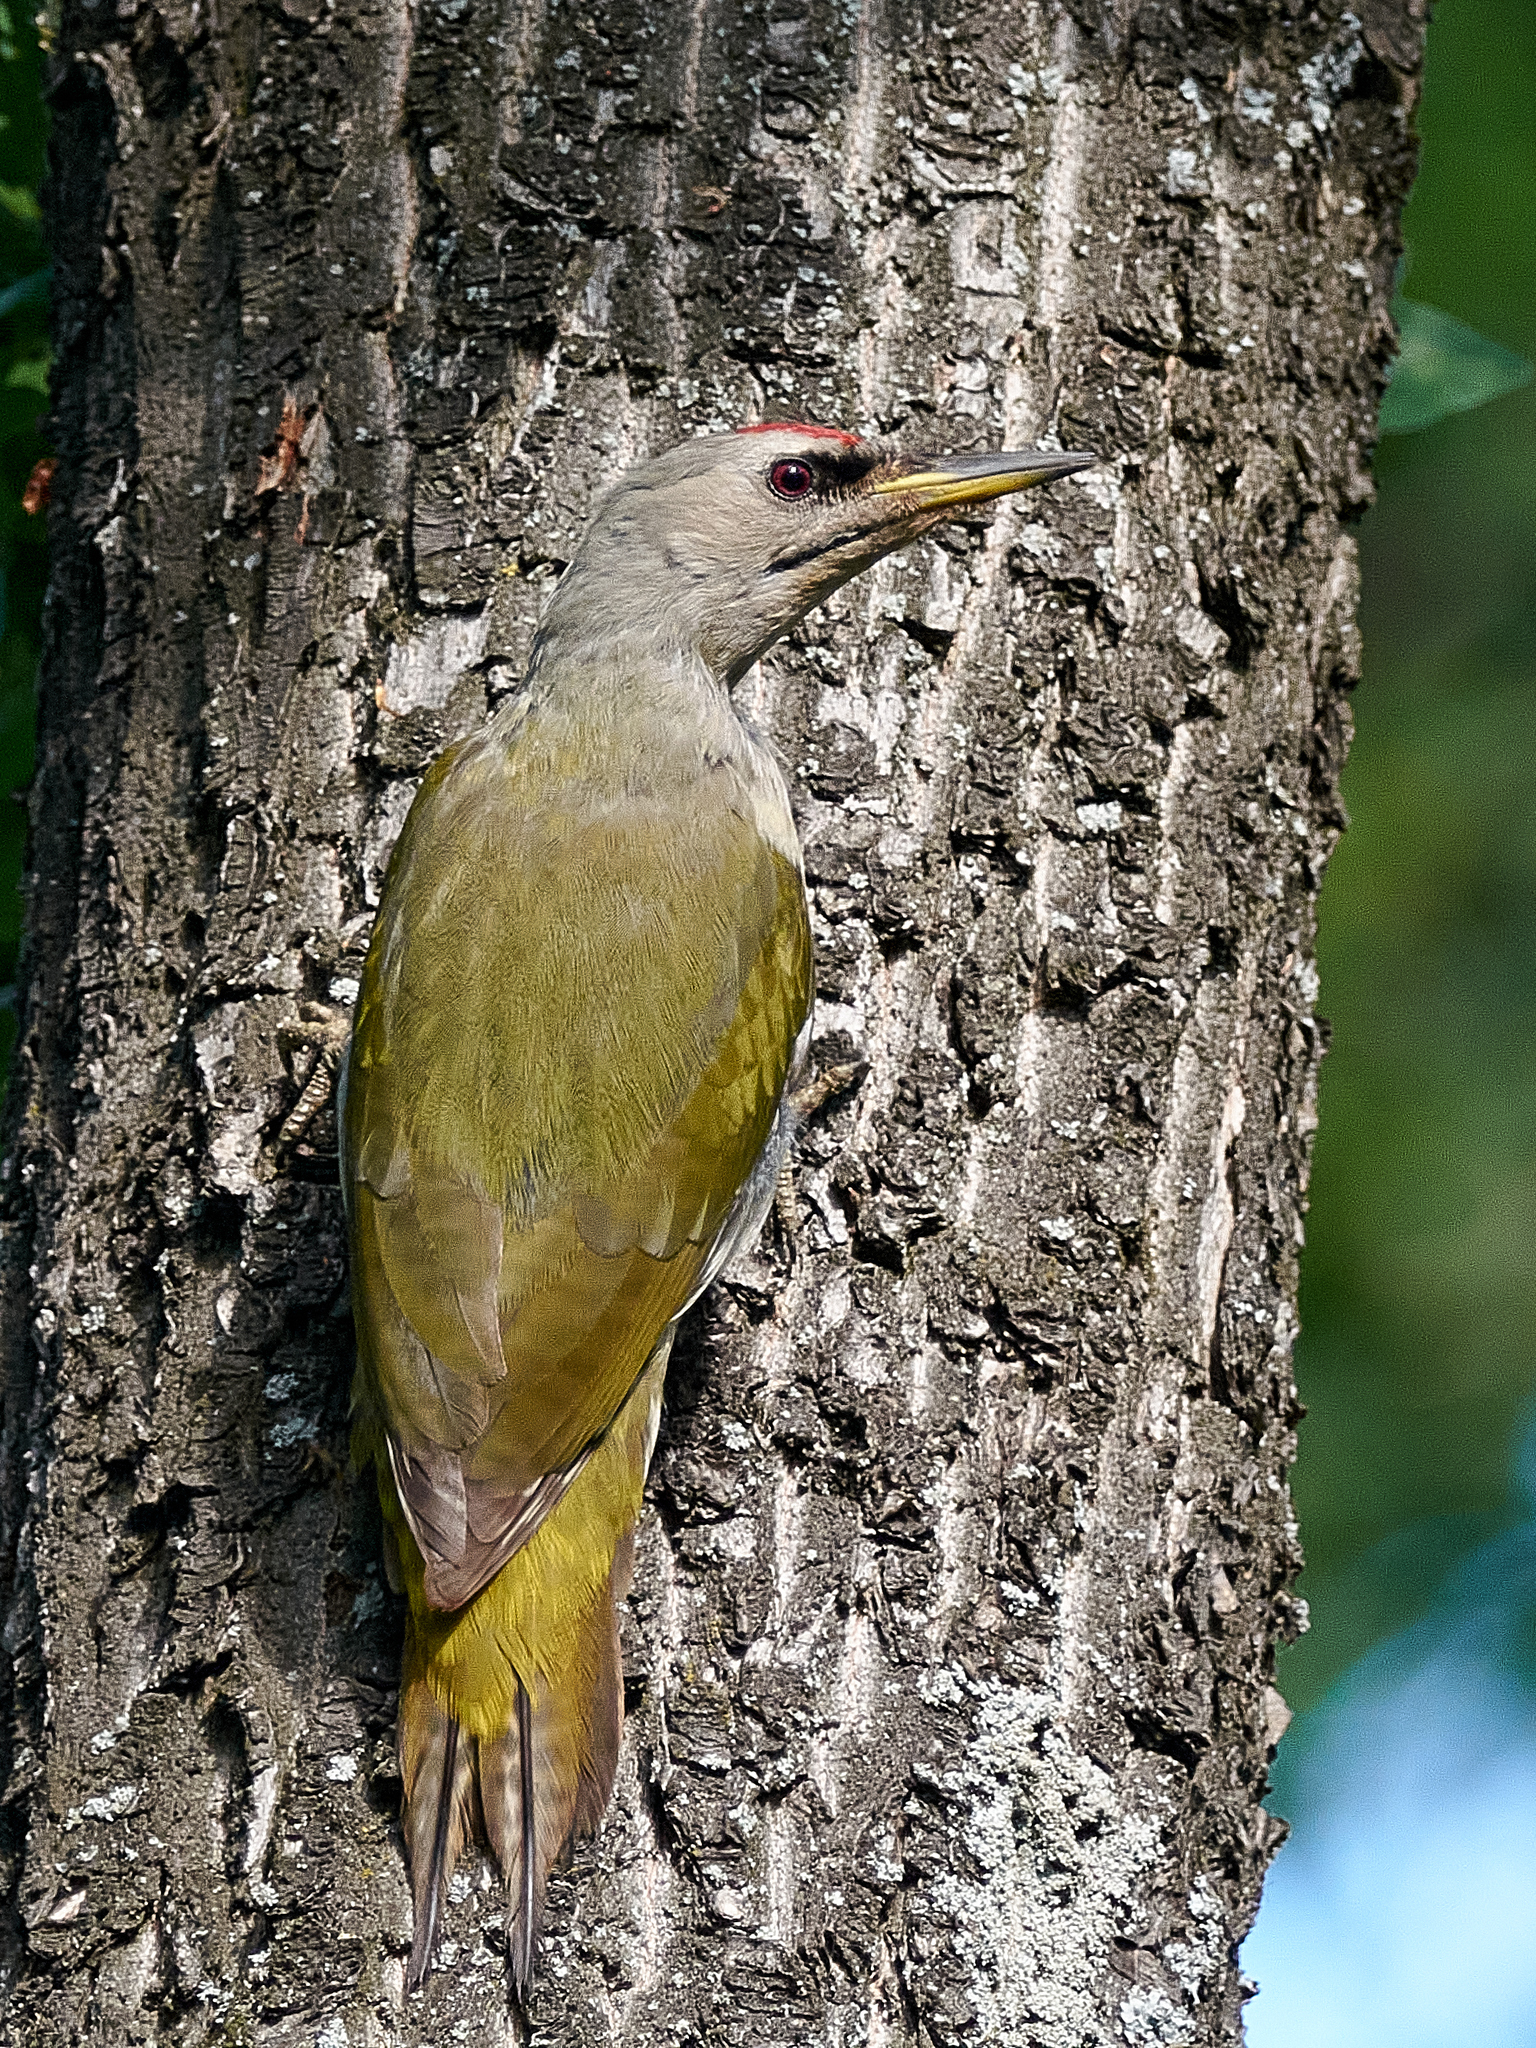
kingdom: Animalia
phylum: Chordata
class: Aves
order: Piciformes
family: Picidae
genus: Picus
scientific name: Picus canus
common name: Grey-headed woodpecker
